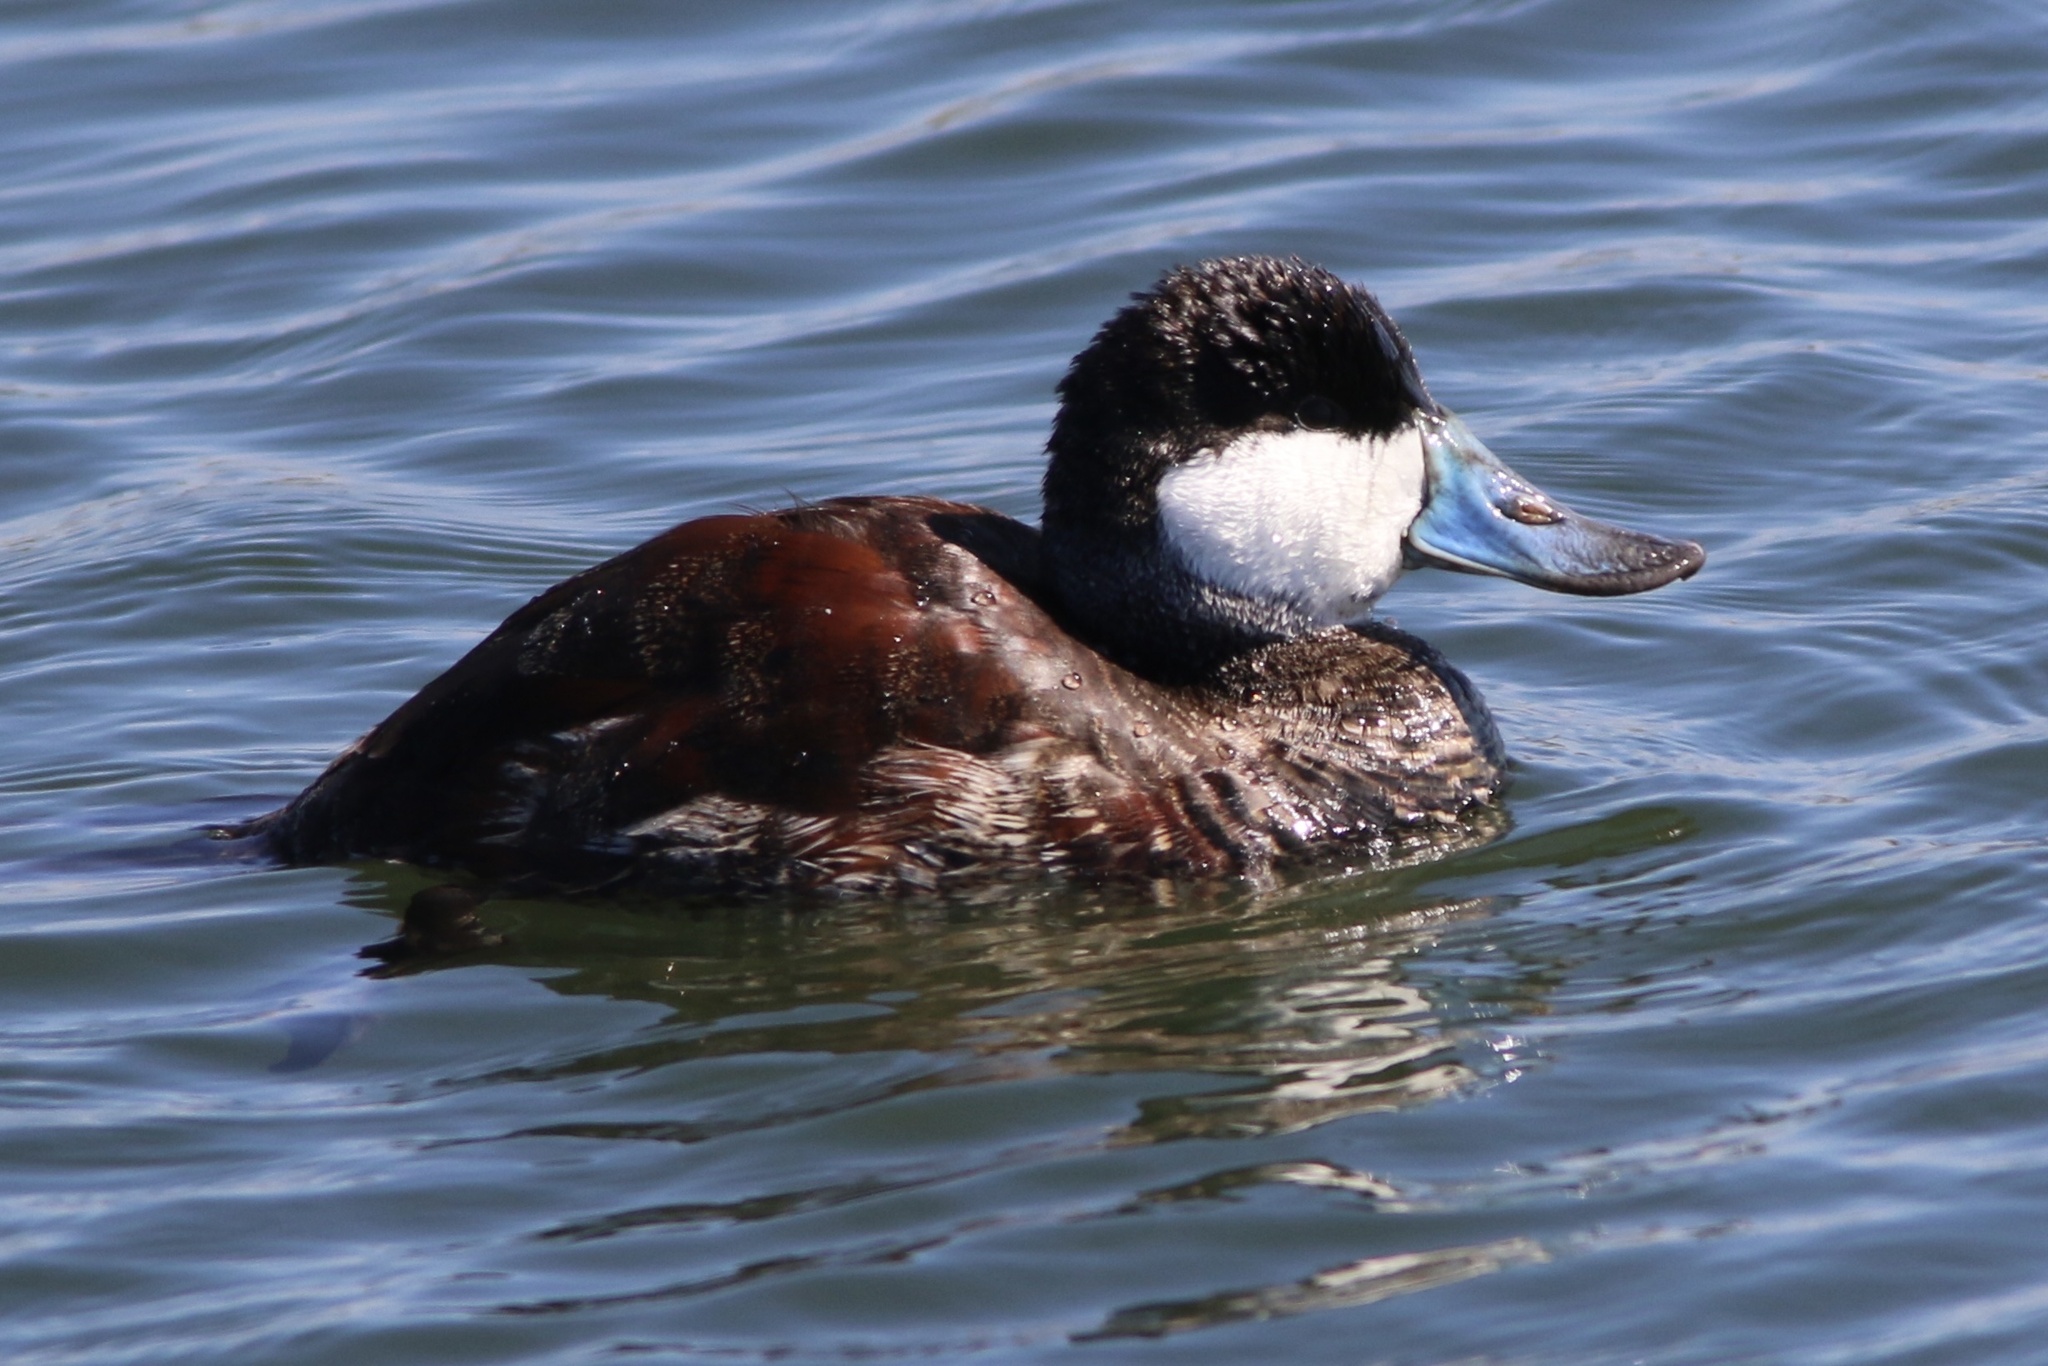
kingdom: Animalia
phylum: Chordata
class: Aves
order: Anseriformes
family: Anatidae
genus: Oxyura
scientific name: Oxyura jamaicensis
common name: Ruddy duck
